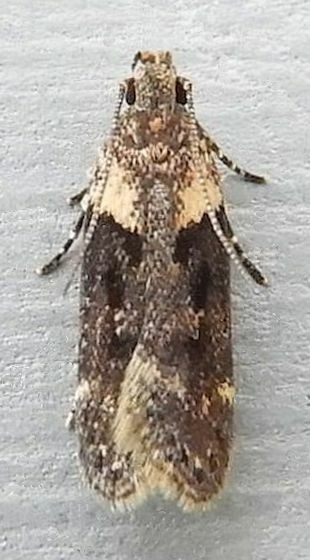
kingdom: Animalia
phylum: Arthropoda
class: Insecta
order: Lepidoptera
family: Gelechiidae
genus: Chionodes
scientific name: Chionodes mediofuscella
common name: Black-smudged chionodes moth
